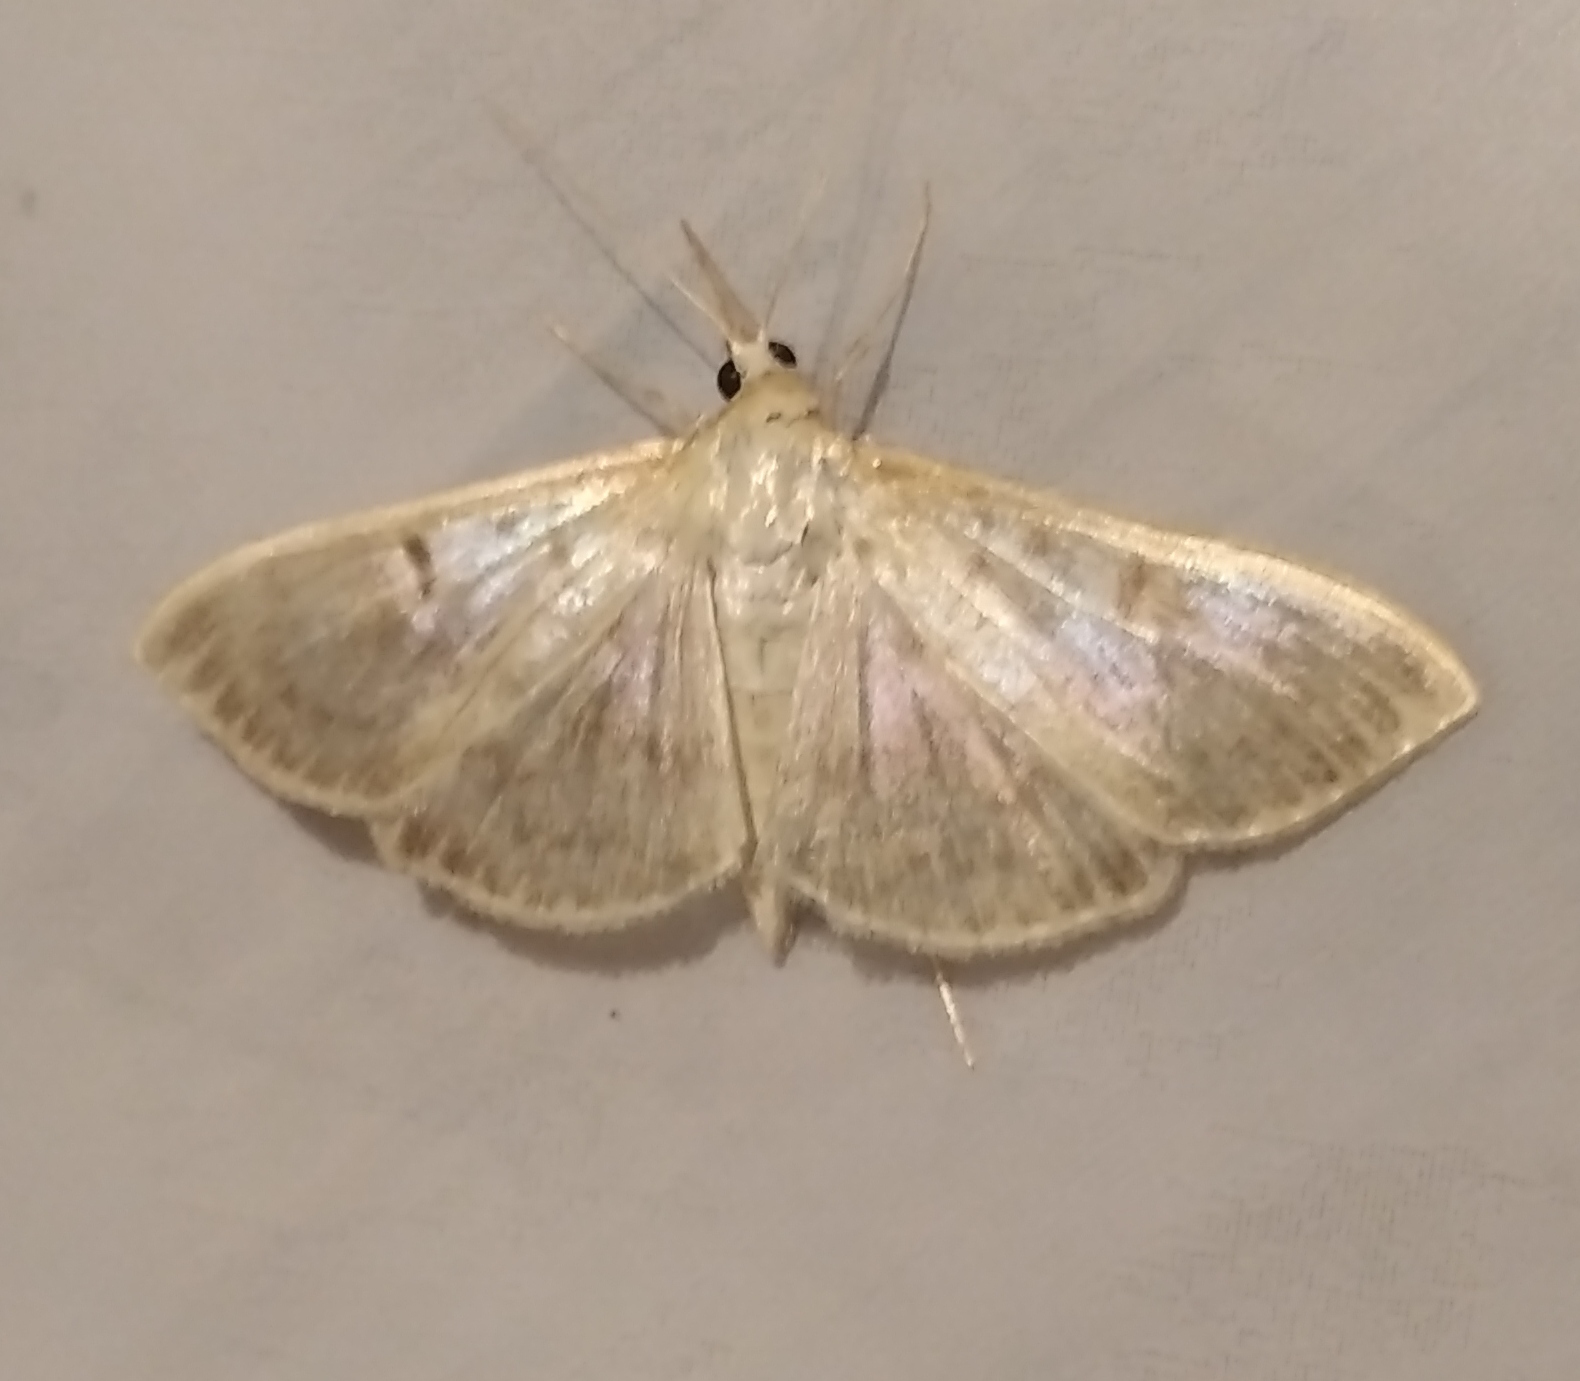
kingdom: Animalia
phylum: Arthropoda
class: Insecta
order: Lepidoptera
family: Crambidae
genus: Patania
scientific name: Patania ruralis
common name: Mother of pearl
